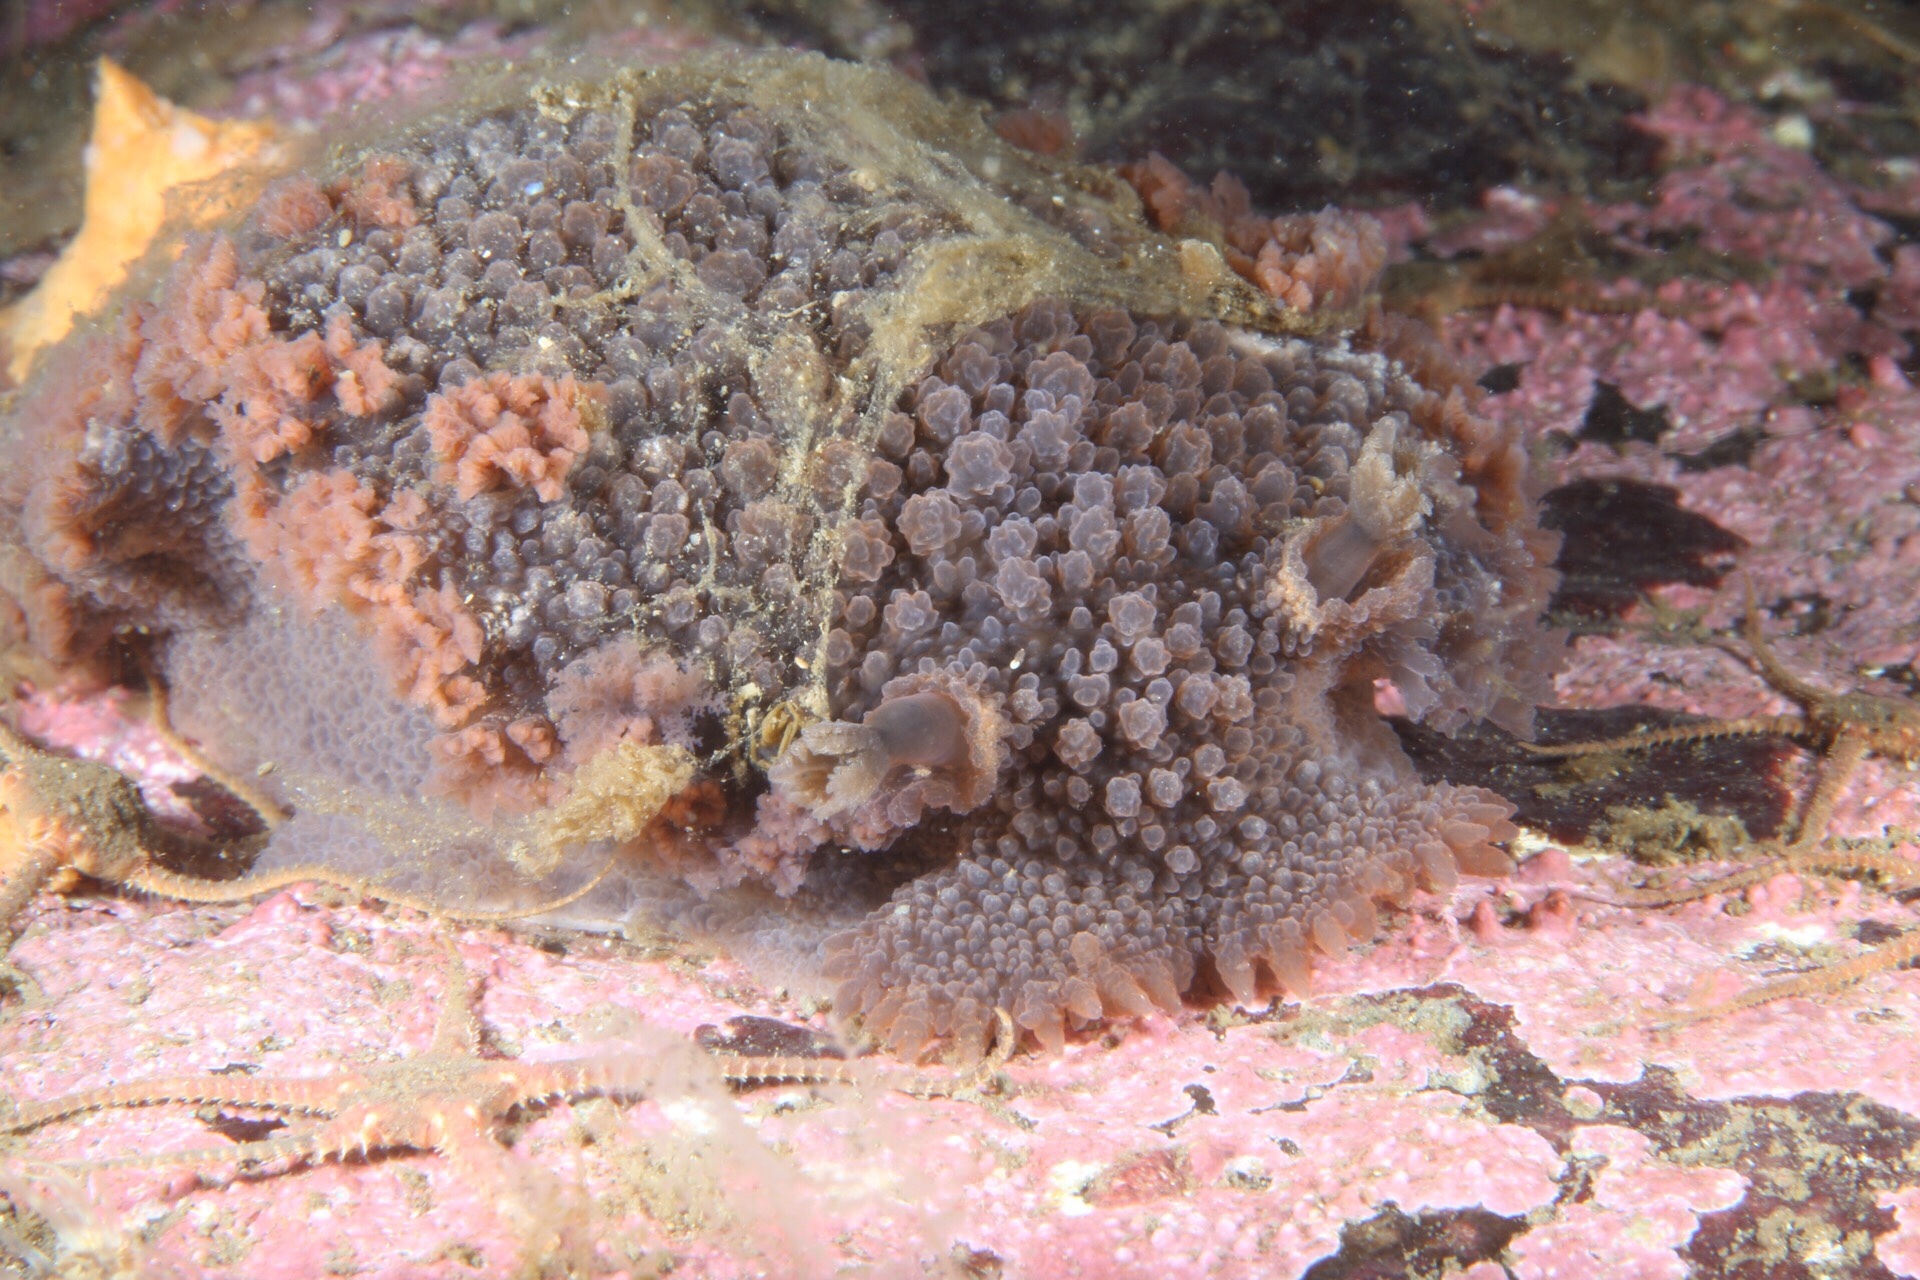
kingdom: Animalia
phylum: Mollusca
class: Gastropoda
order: Nudibranchia
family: Tritoniidae
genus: Tritonia
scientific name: Tritonia hombergii
